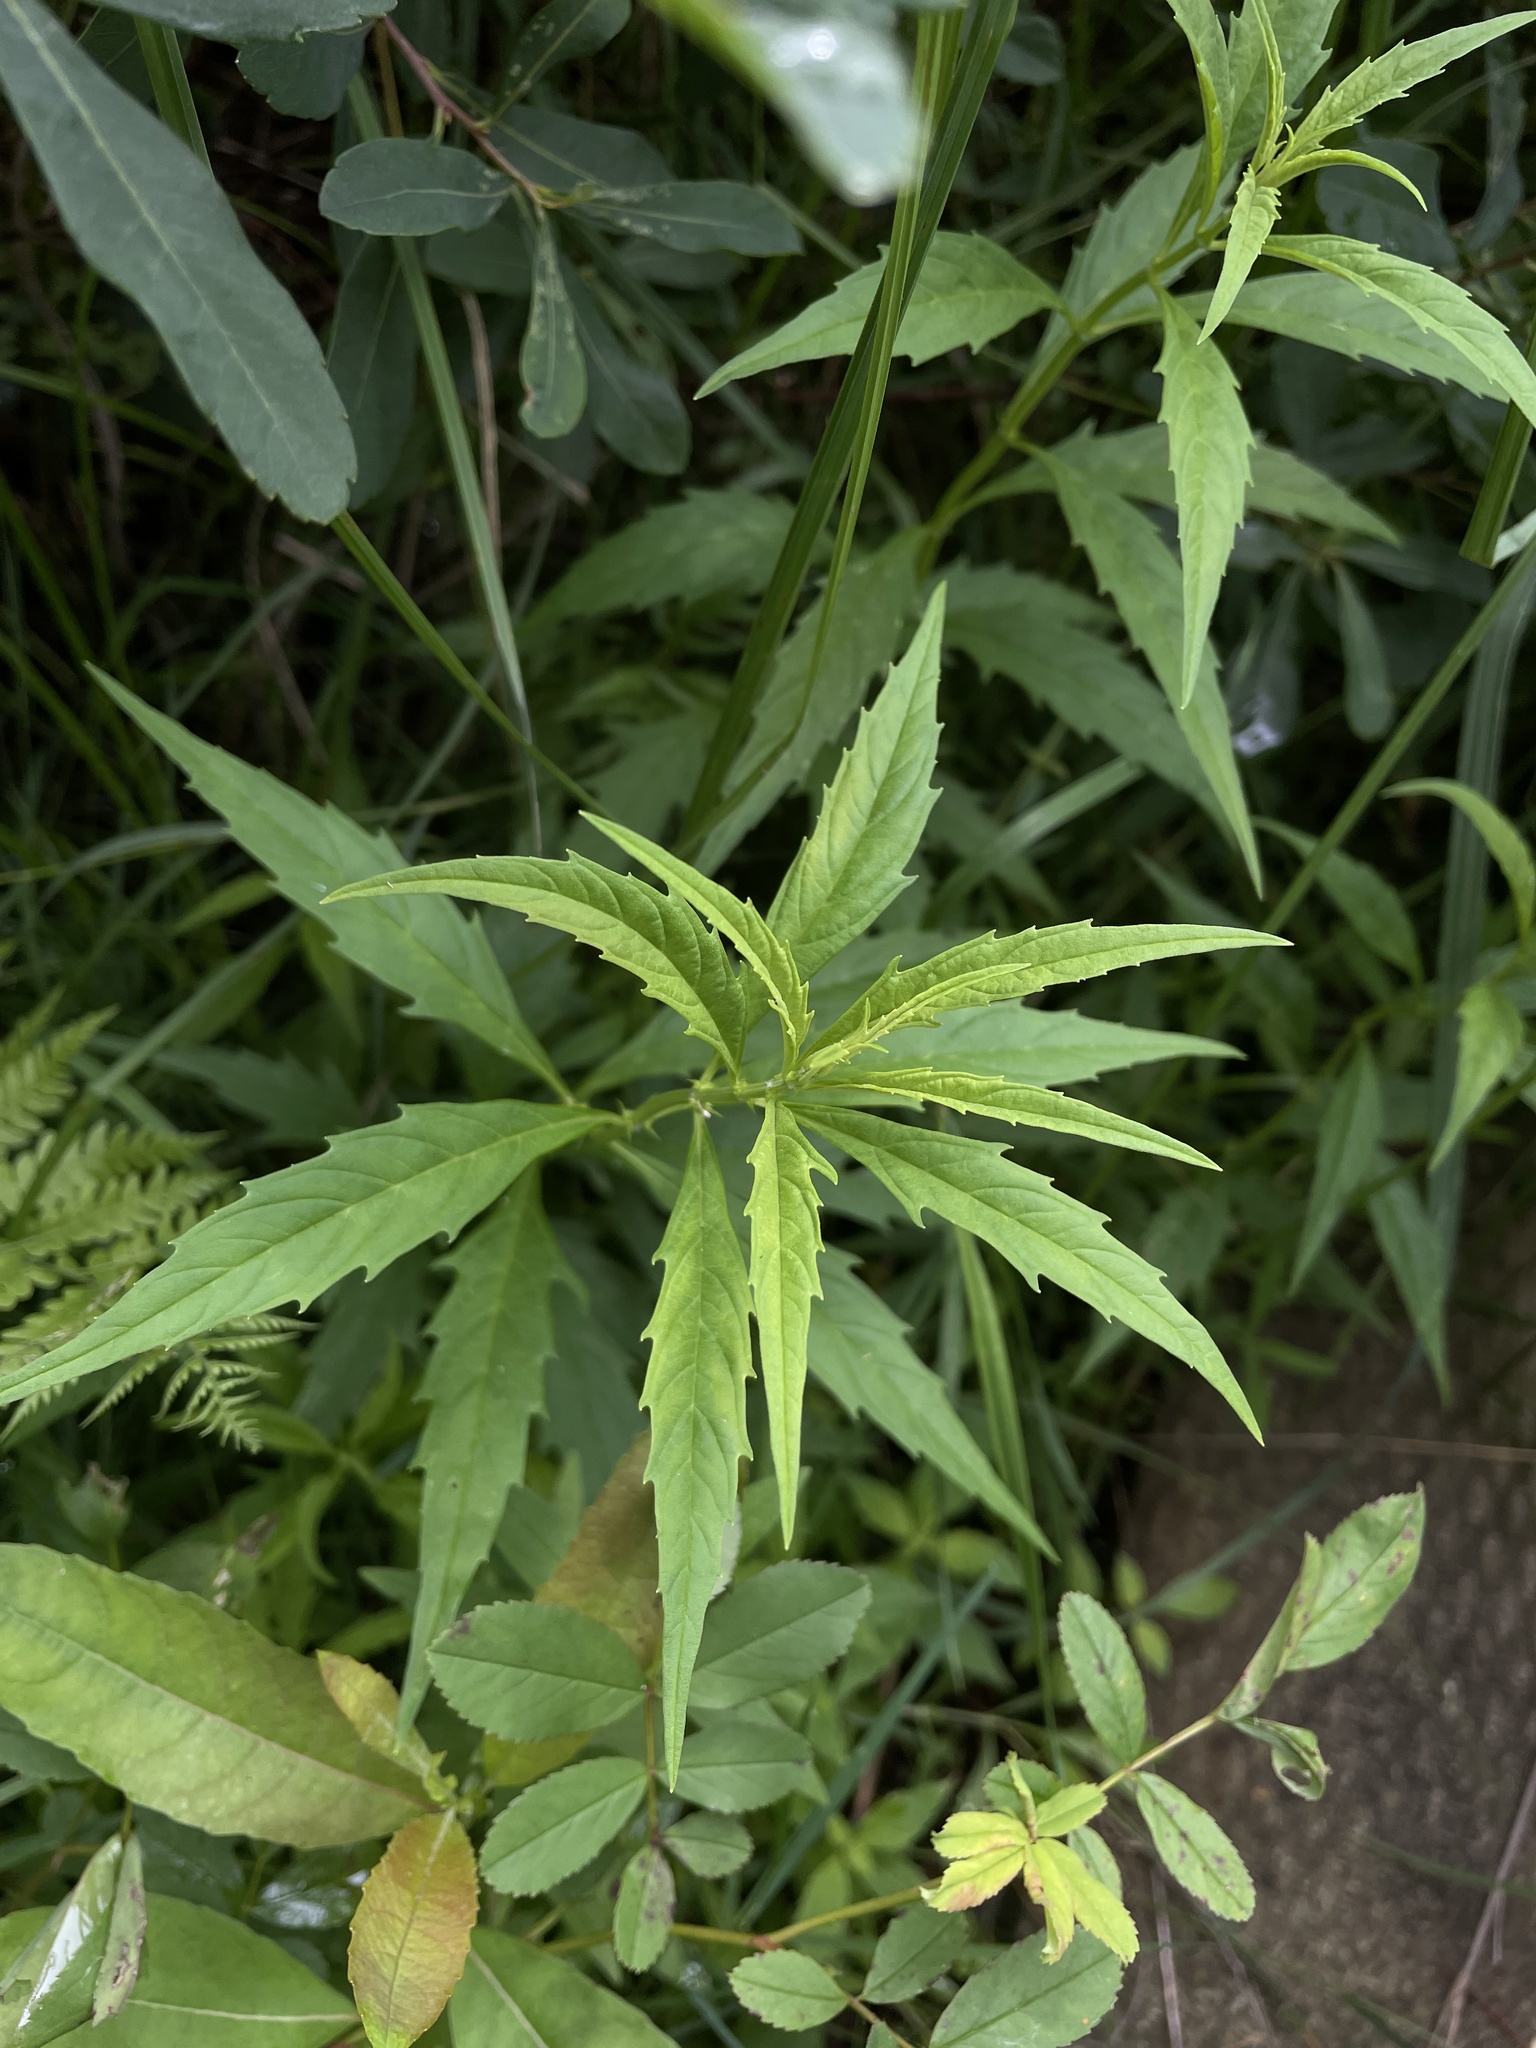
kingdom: Plantae
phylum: Tracheophyta
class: Magnoliopsida
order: Lamiales
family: Lamiaceae
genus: Lycopus
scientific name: Lycopus americanus
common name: American bugleweed
